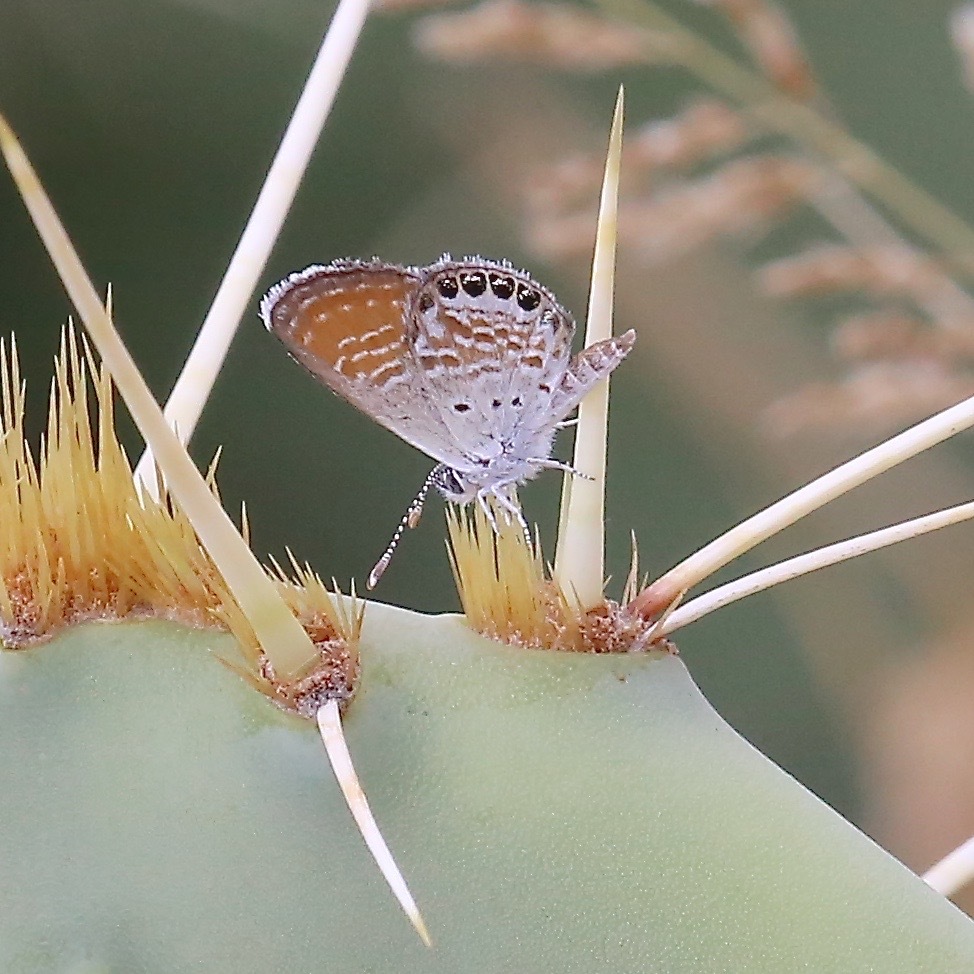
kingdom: Animalia
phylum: Arthropoda
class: Insecta
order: Lepidoptera
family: Lycaenidae
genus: Brephidium
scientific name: Brephidium exilis
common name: Pygmy blue
